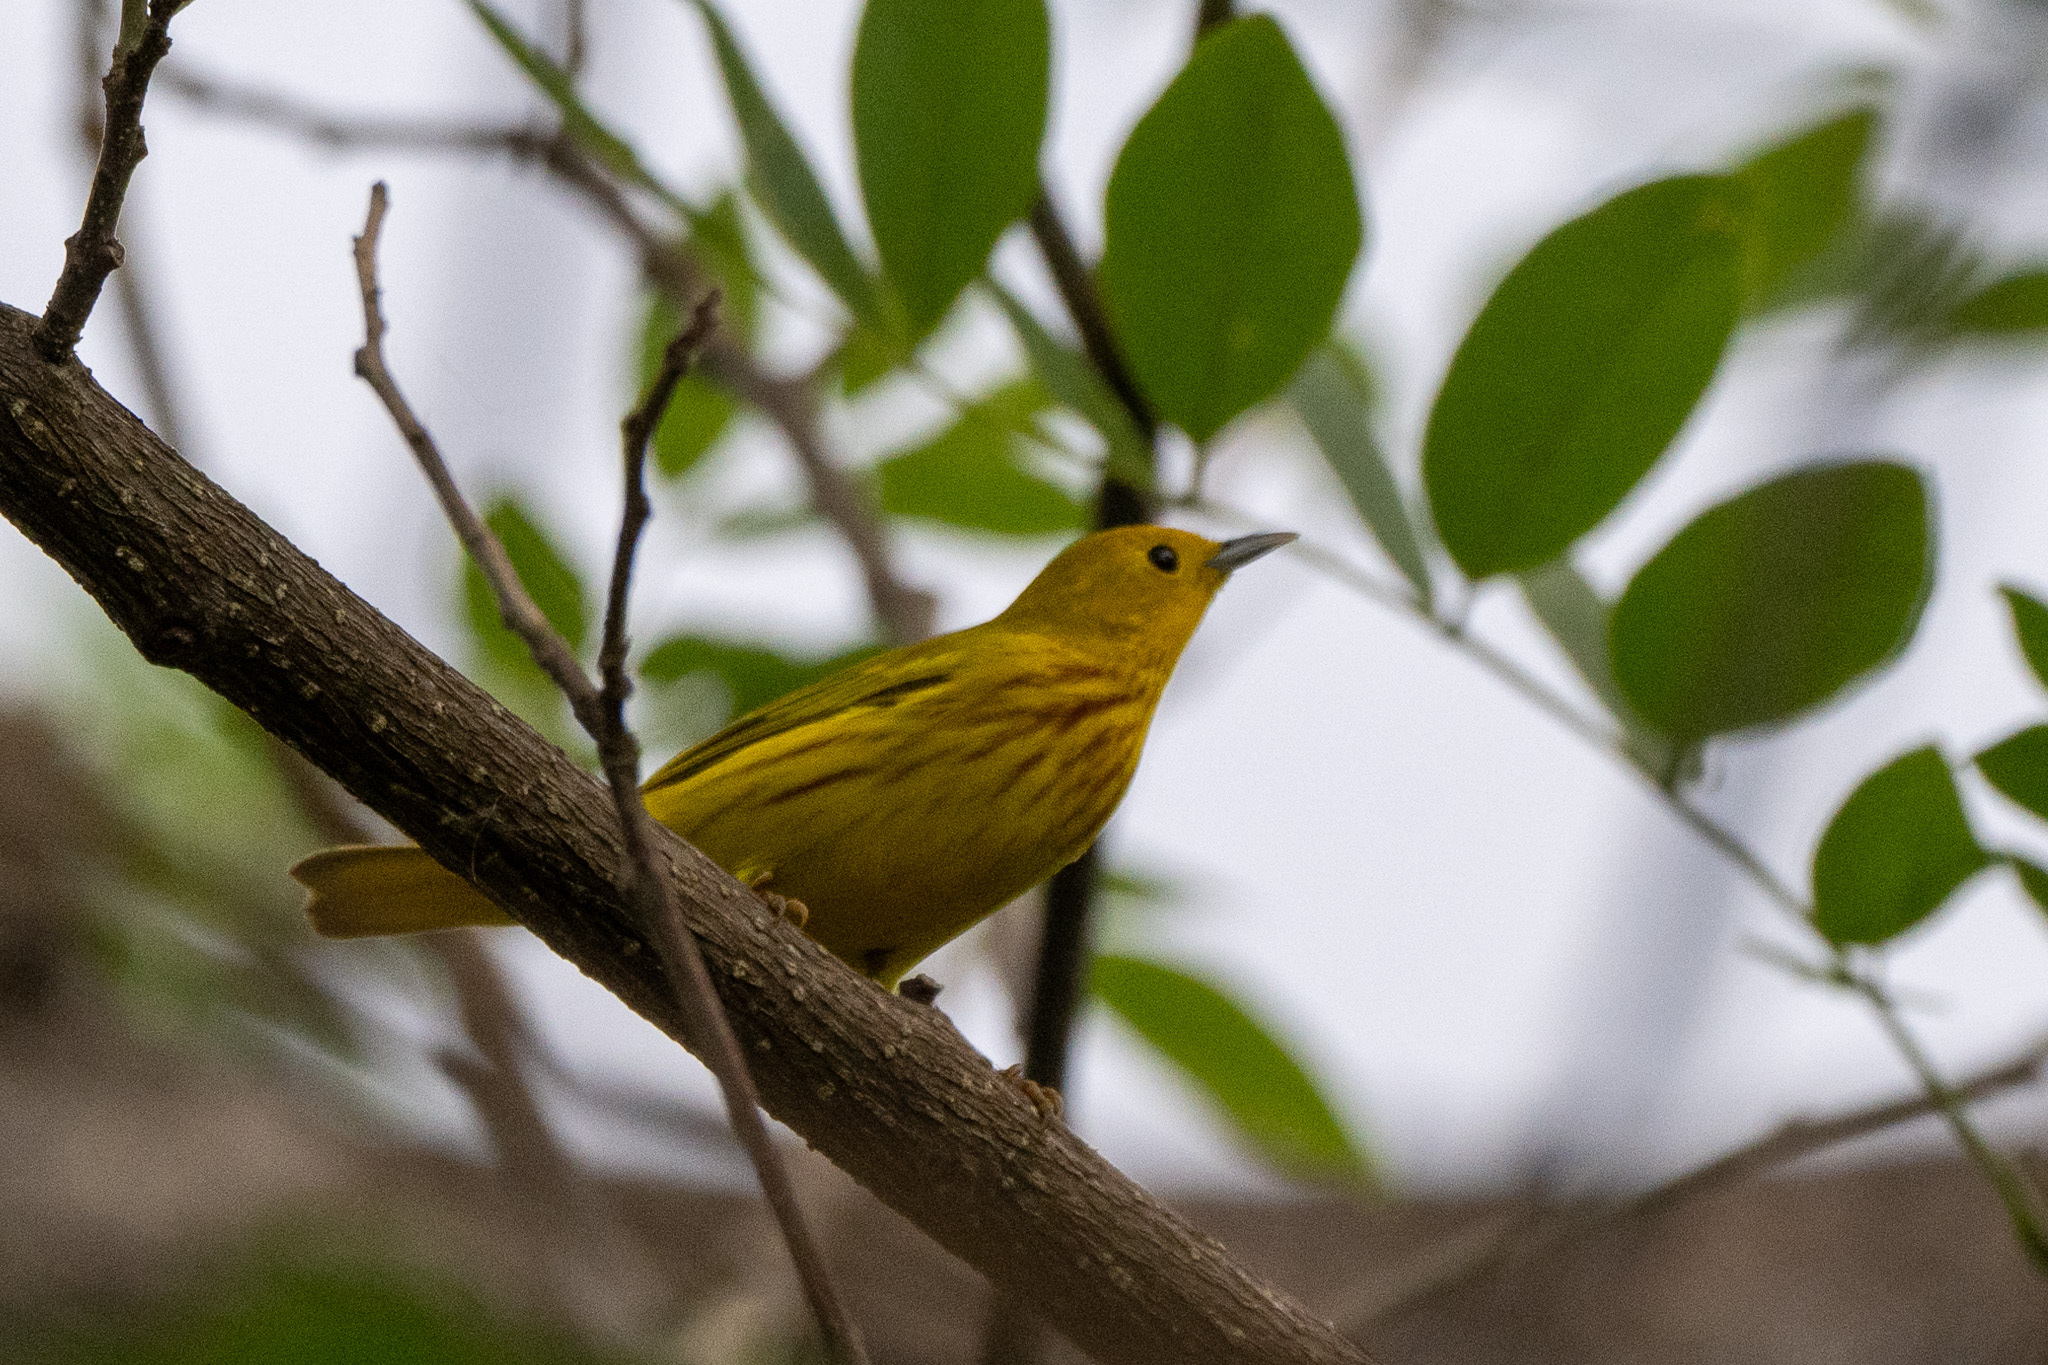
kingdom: Animalia
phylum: Chordata
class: Aves
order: Passeriformes
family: Parulidae
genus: Setophaga
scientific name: Setophaga petechia
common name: Yellow warbler
